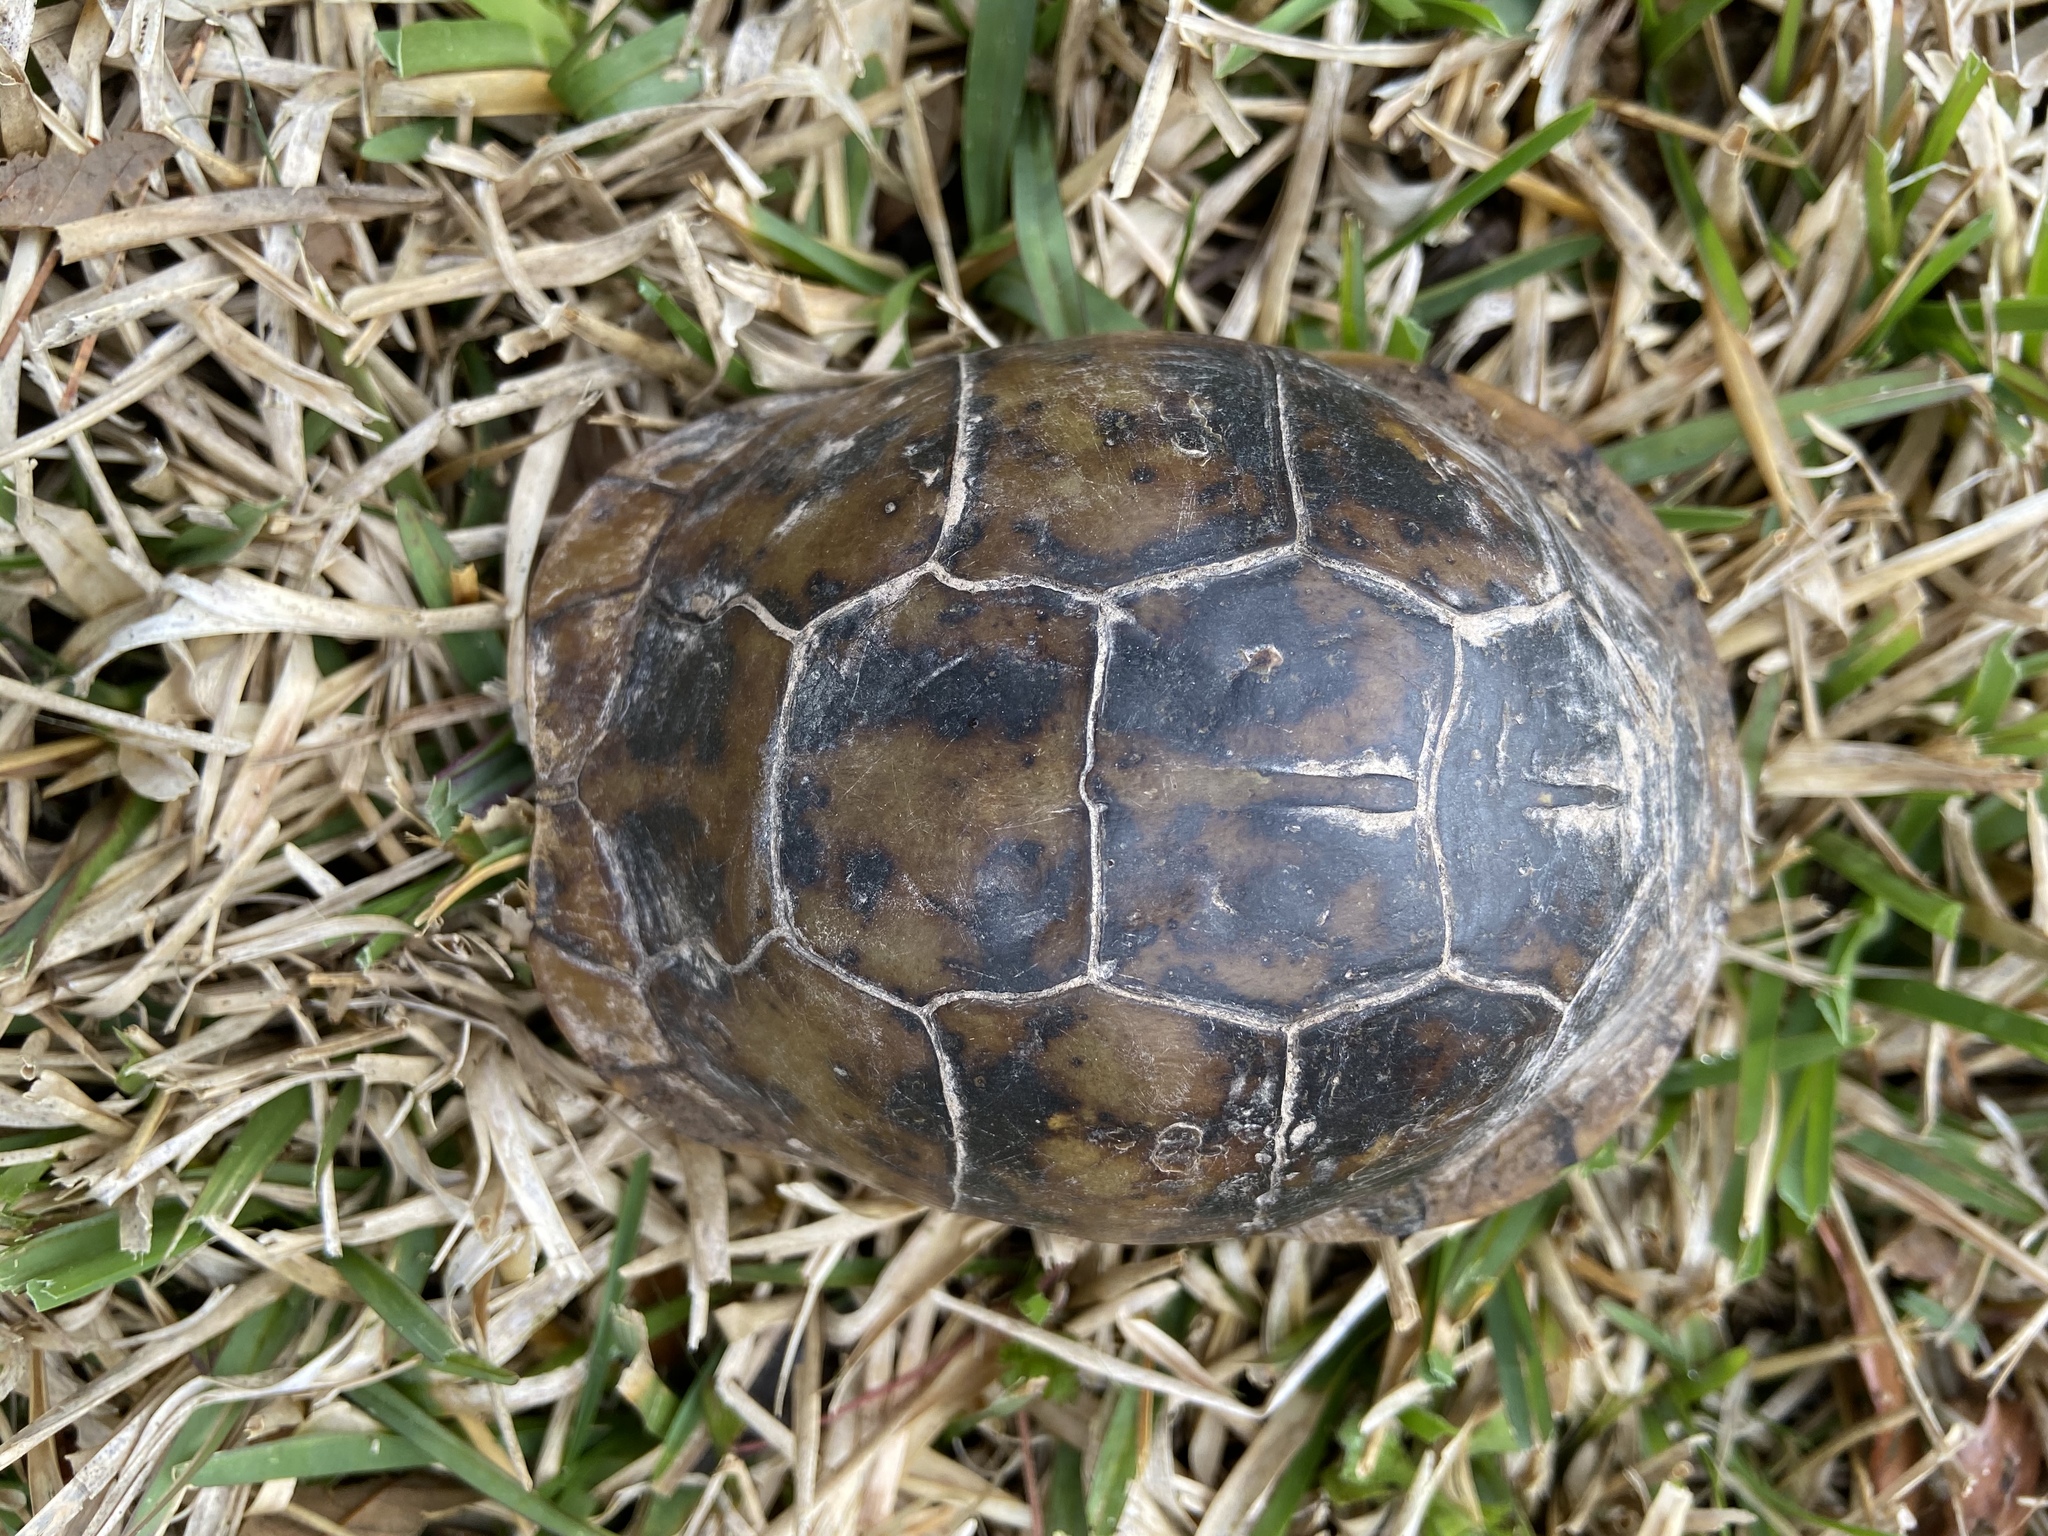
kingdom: Animalia
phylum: Chordata
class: Testudines
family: Emydidae
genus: Terrapene
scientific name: Terrapene carolina
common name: Common box turtle
